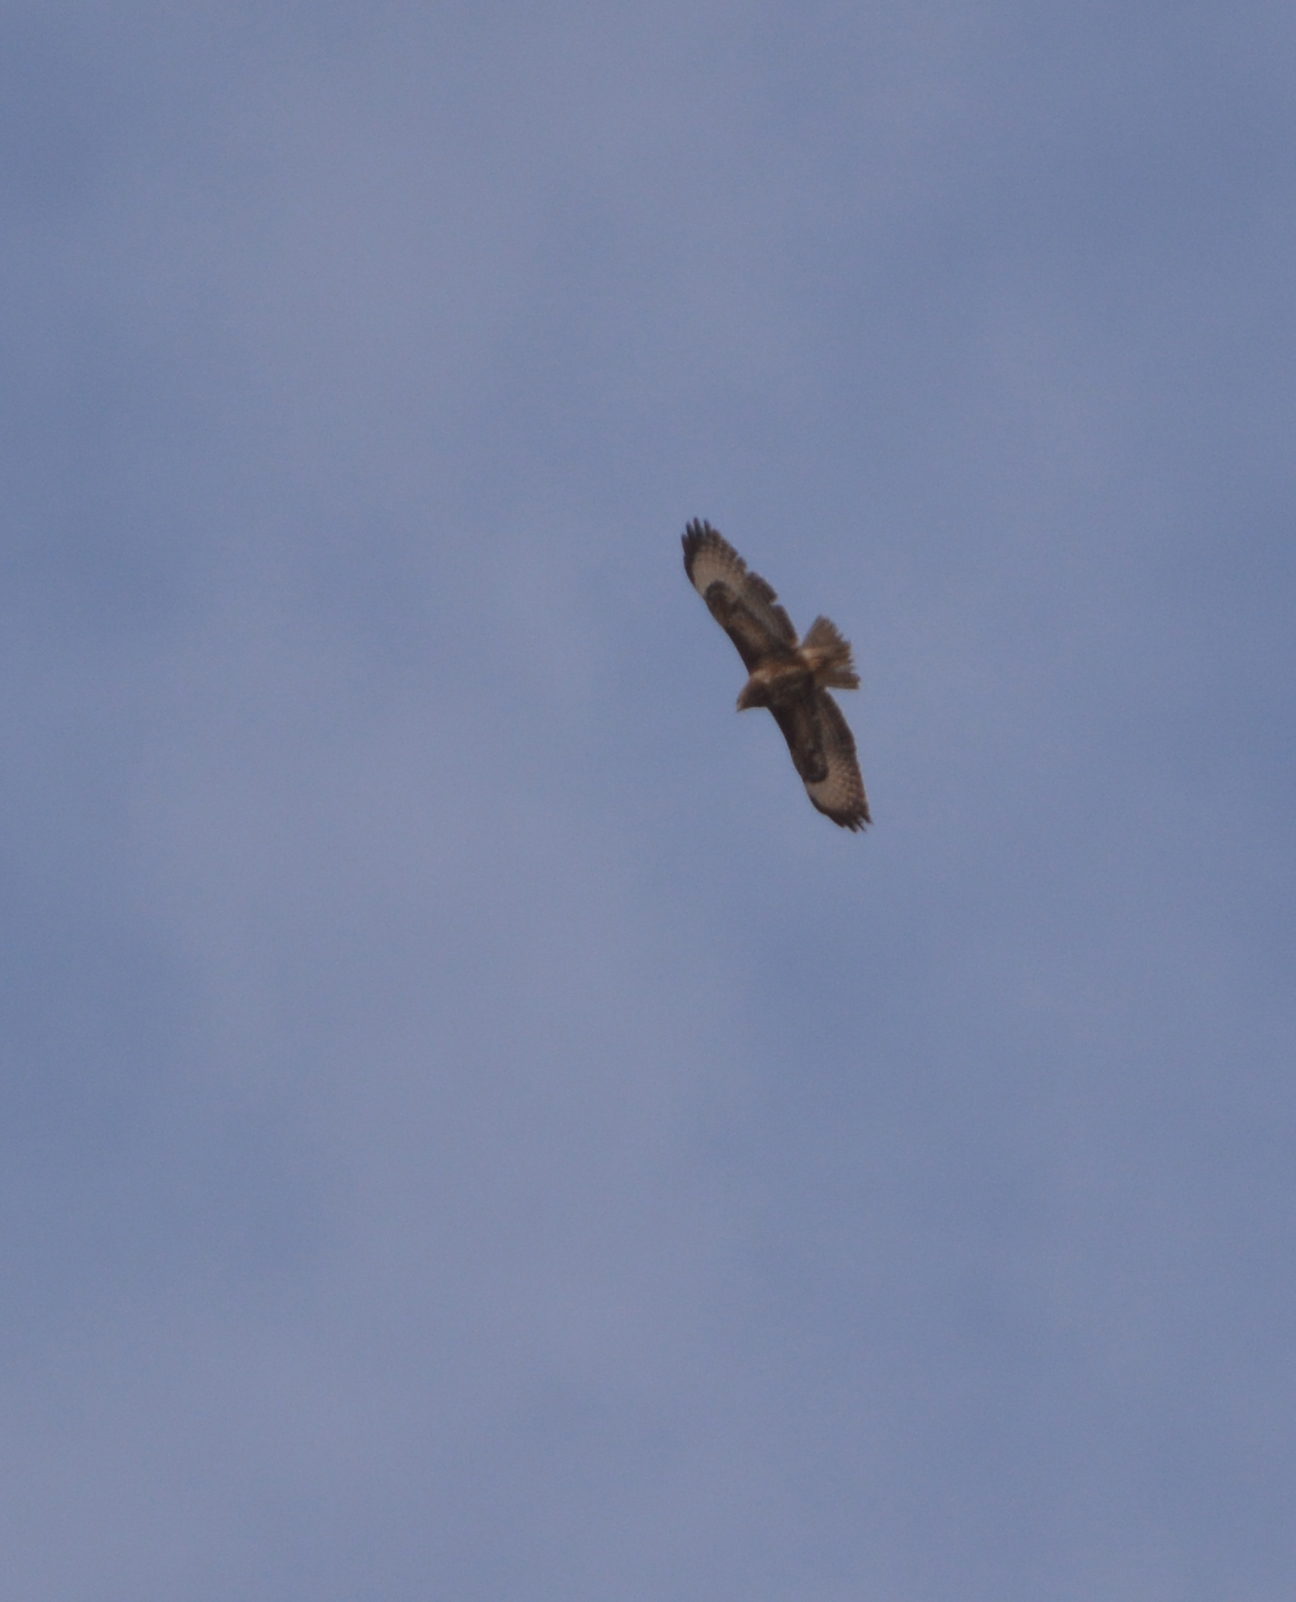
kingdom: Animalia
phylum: Chordata
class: Aves
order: Accipitriformes
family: Accipitridae
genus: Buteo
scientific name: Buteo buteo
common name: Common buzzard
